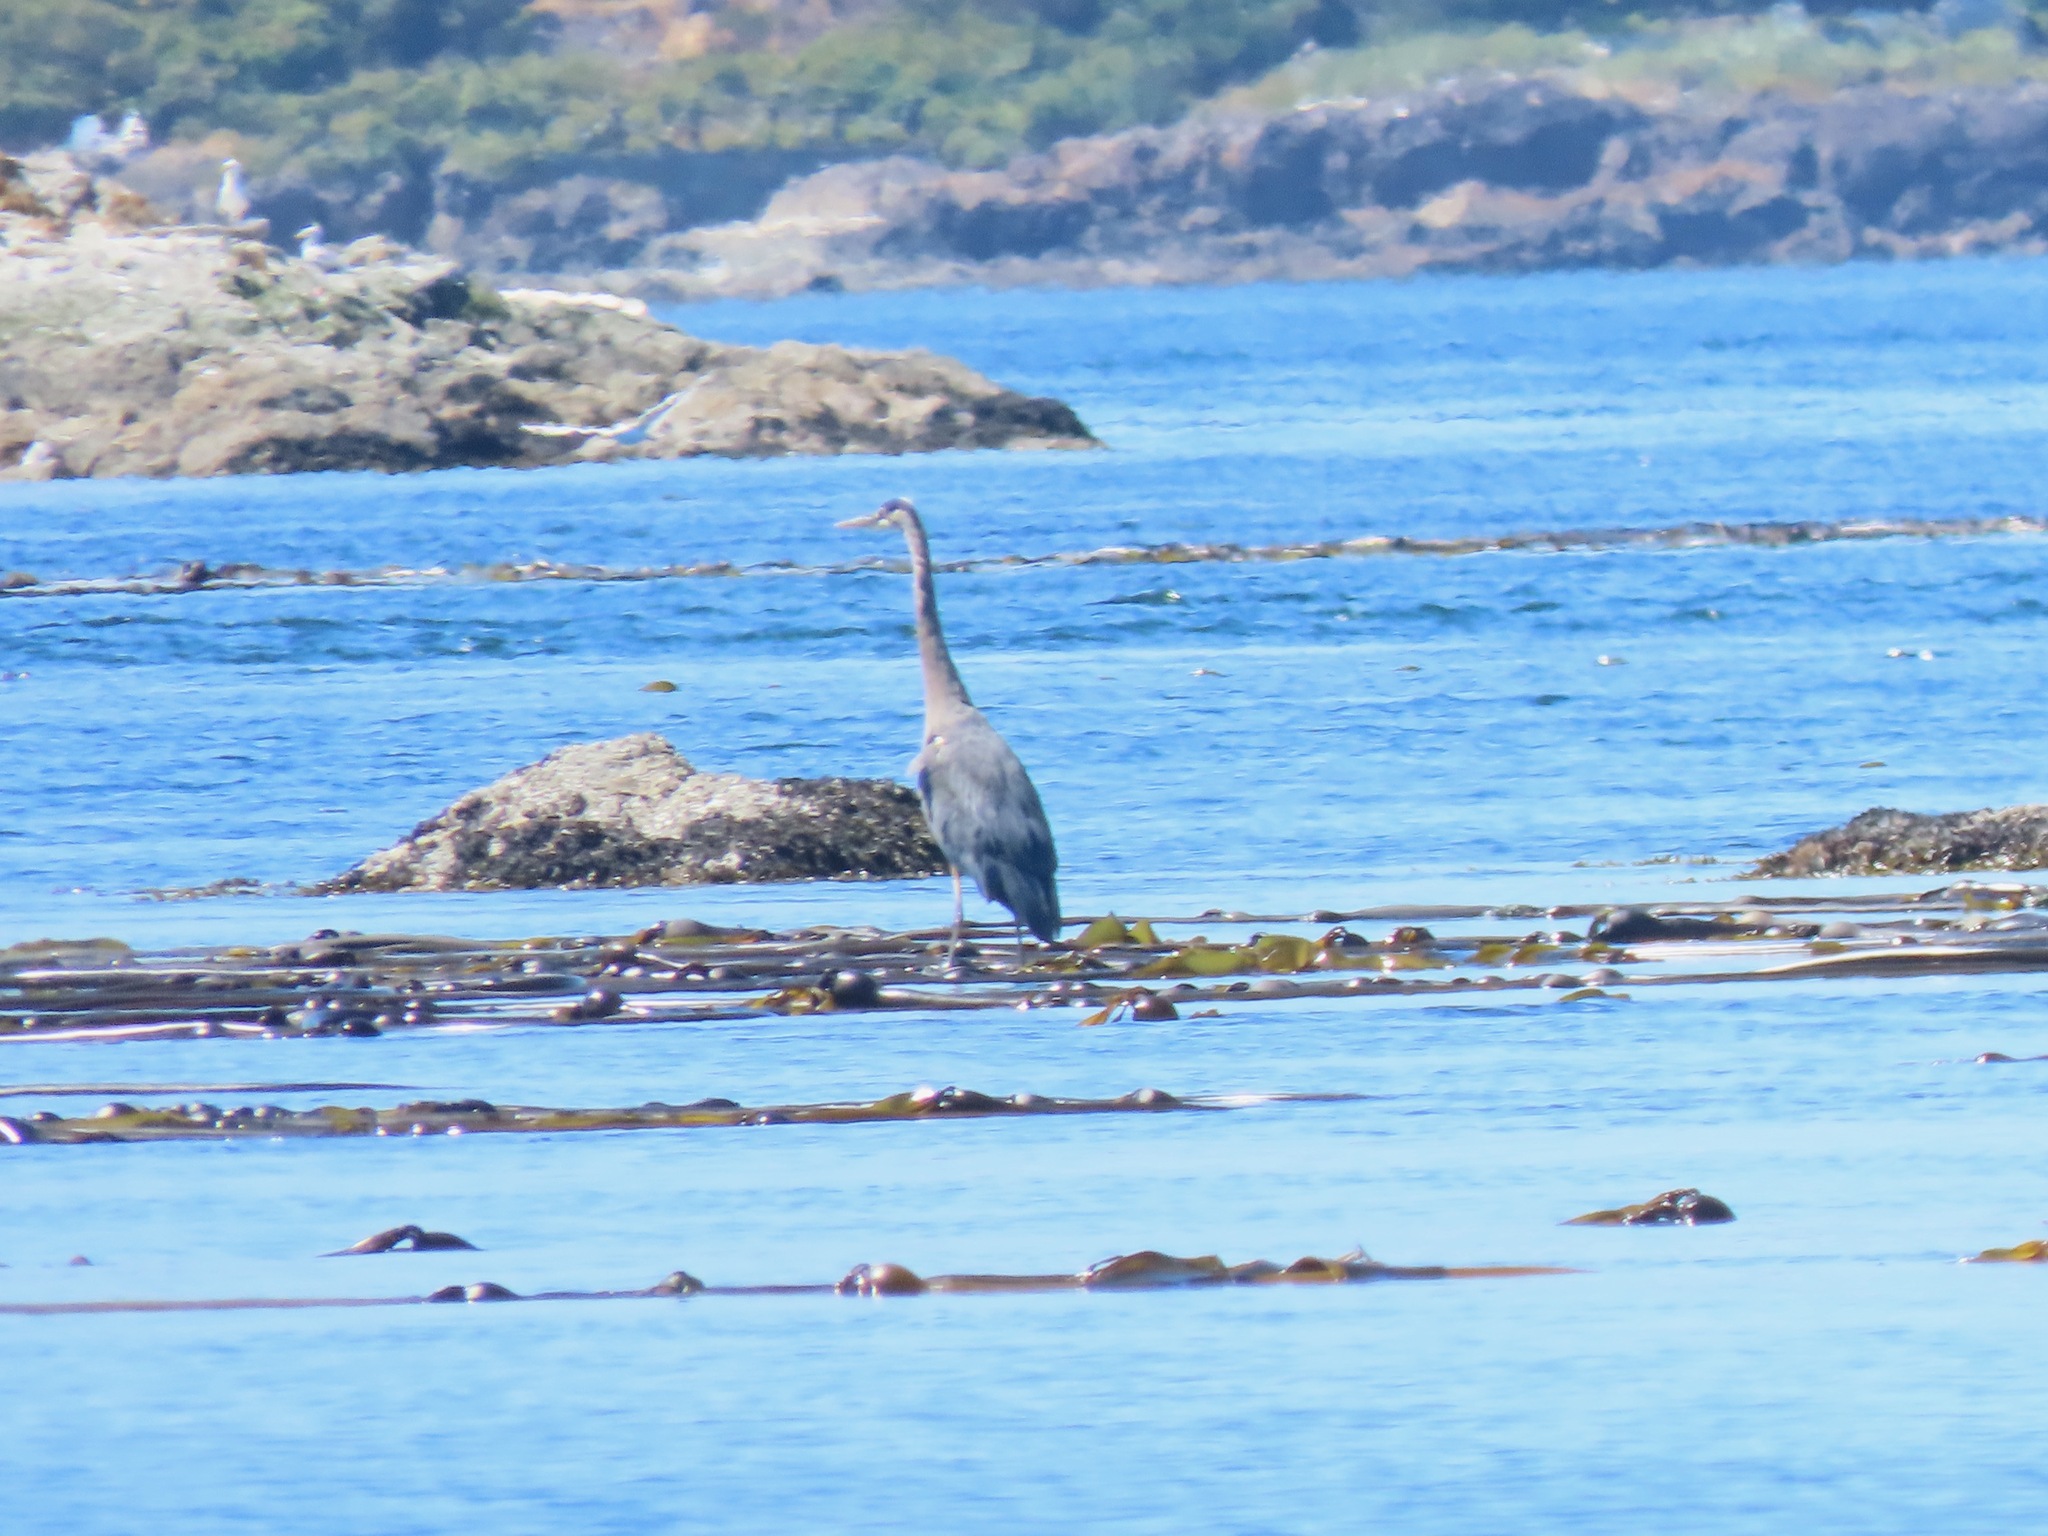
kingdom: Animalia
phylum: Chordata
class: Aves
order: Pelecaniformes
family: Ardeidae
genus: Ardea
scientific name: Ardea herodias
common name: Great blue heron
